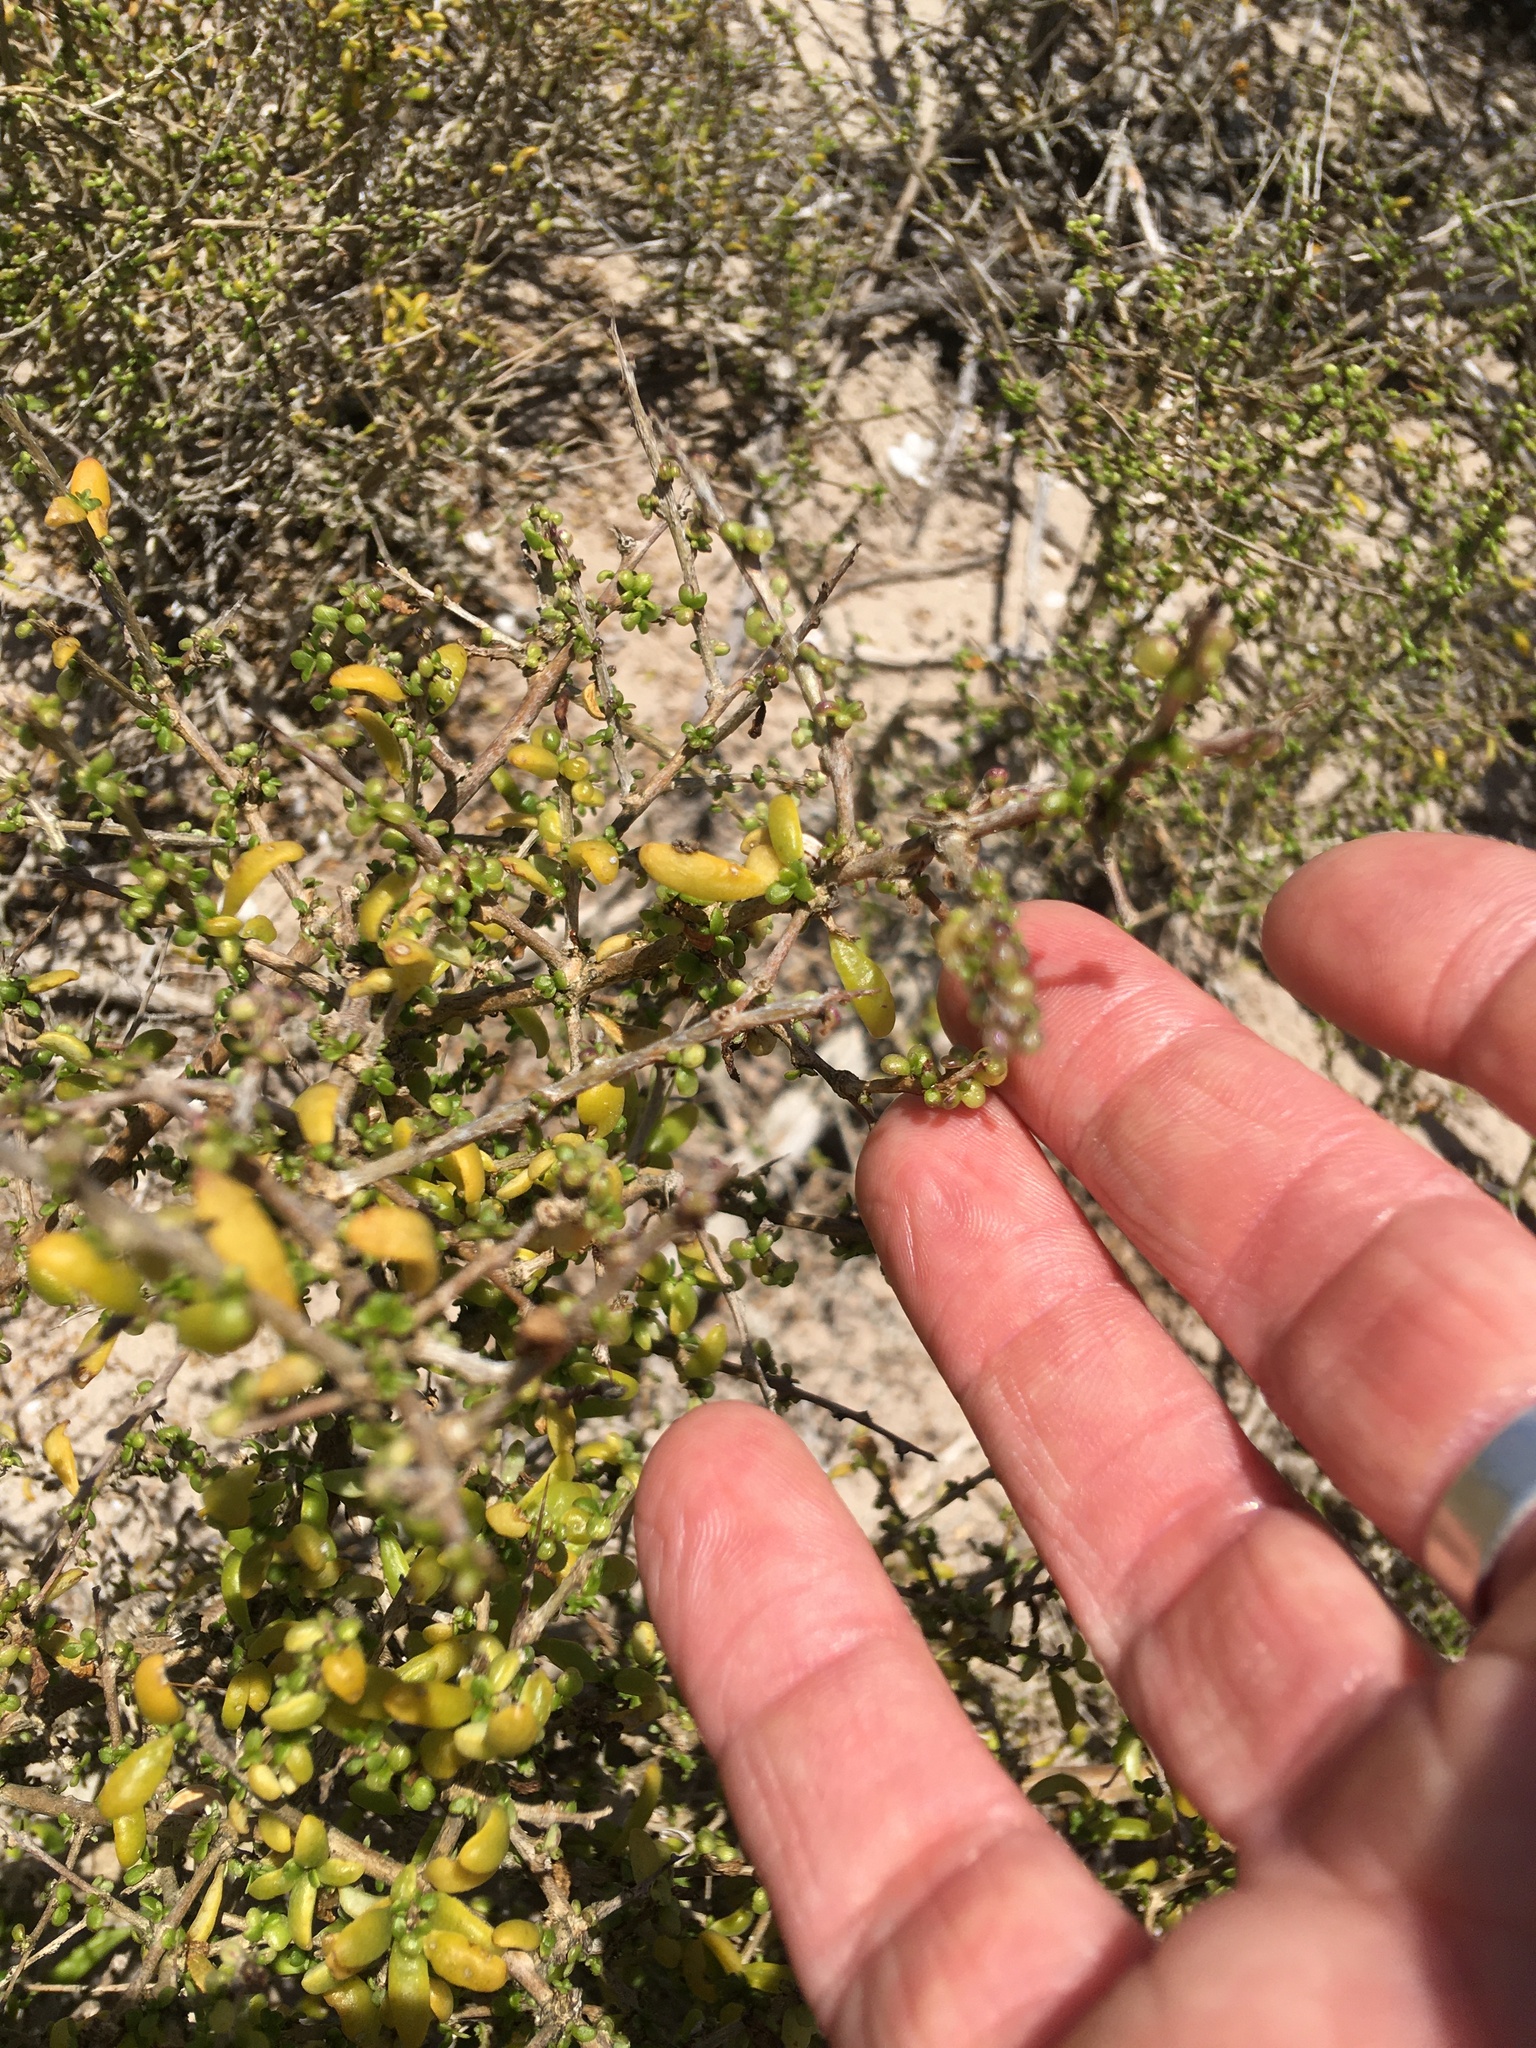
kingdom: Plantae
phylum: Tracheophyta
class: Magnoliopsida
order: Solanales
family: Solanaceae
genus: Lycium
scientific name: Lycium tetrandrum
